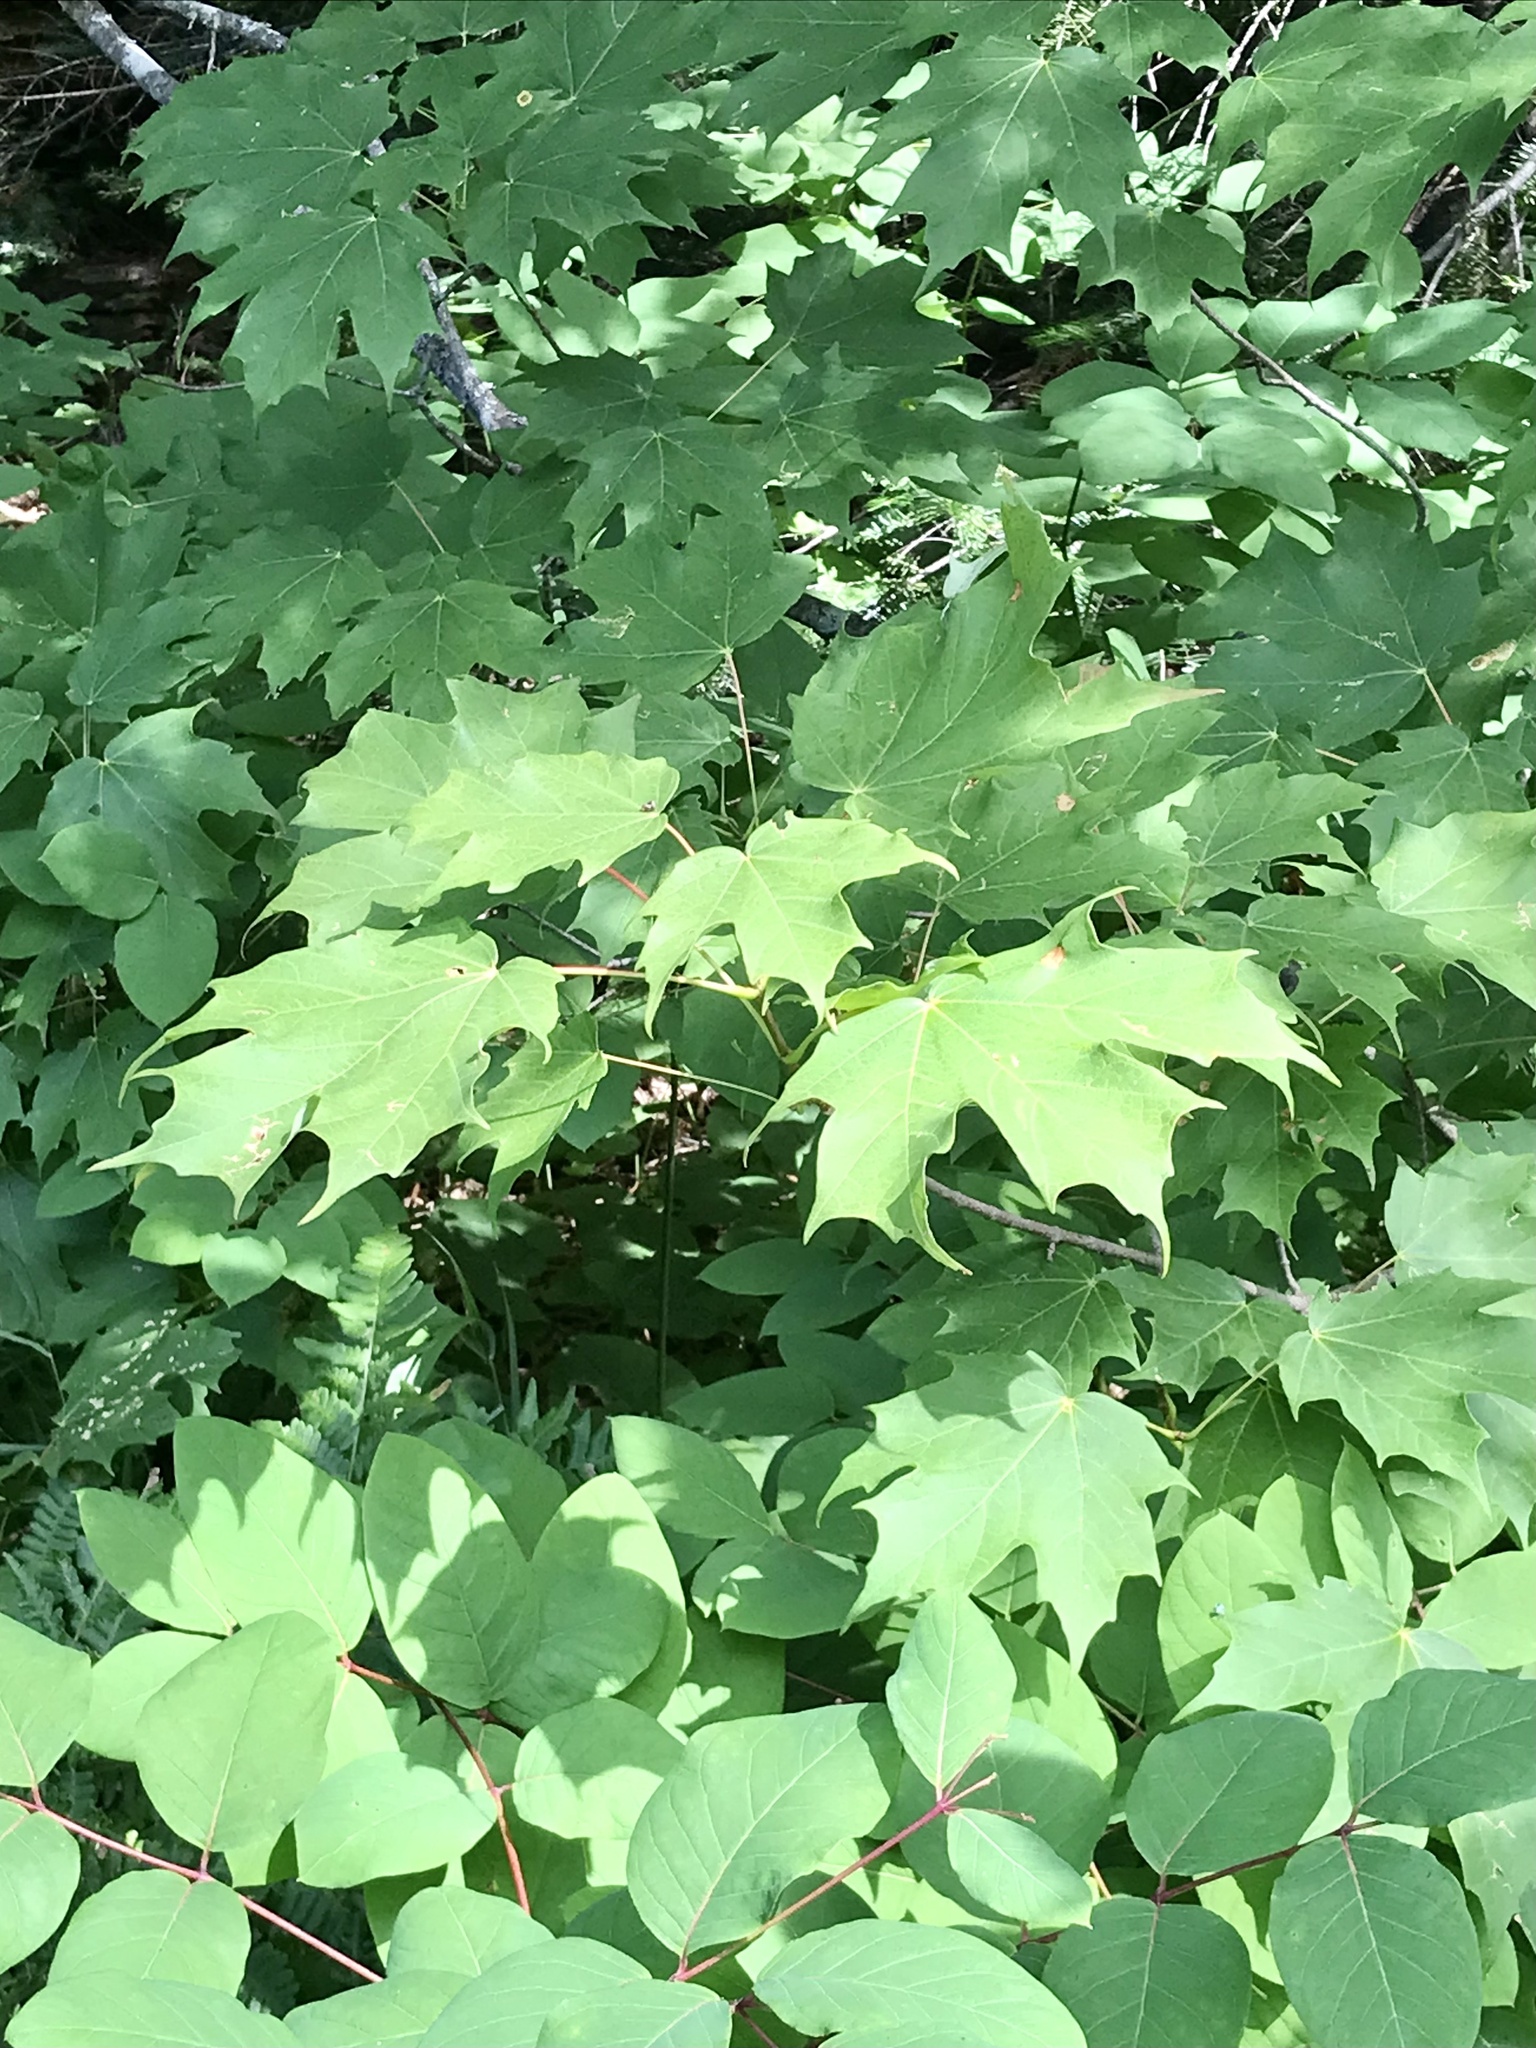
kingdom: Plantae
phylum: Tracheophyta
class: Magnoliopsida
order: Sapindales
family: Sapindaceae
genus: Acer
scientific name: Acer saccharum
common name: Sugar maple
